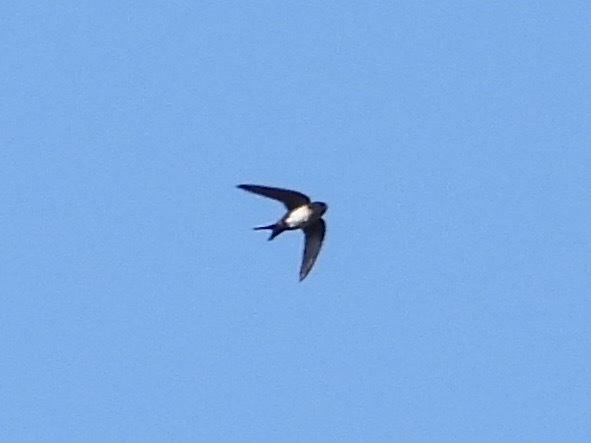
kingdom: Animalia
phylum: Chordata
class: Aves
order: Passeriformes
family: Hirundinidae
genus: Notiochelidon
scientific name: Notiochelidon pileata
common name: Black-capped swallow
